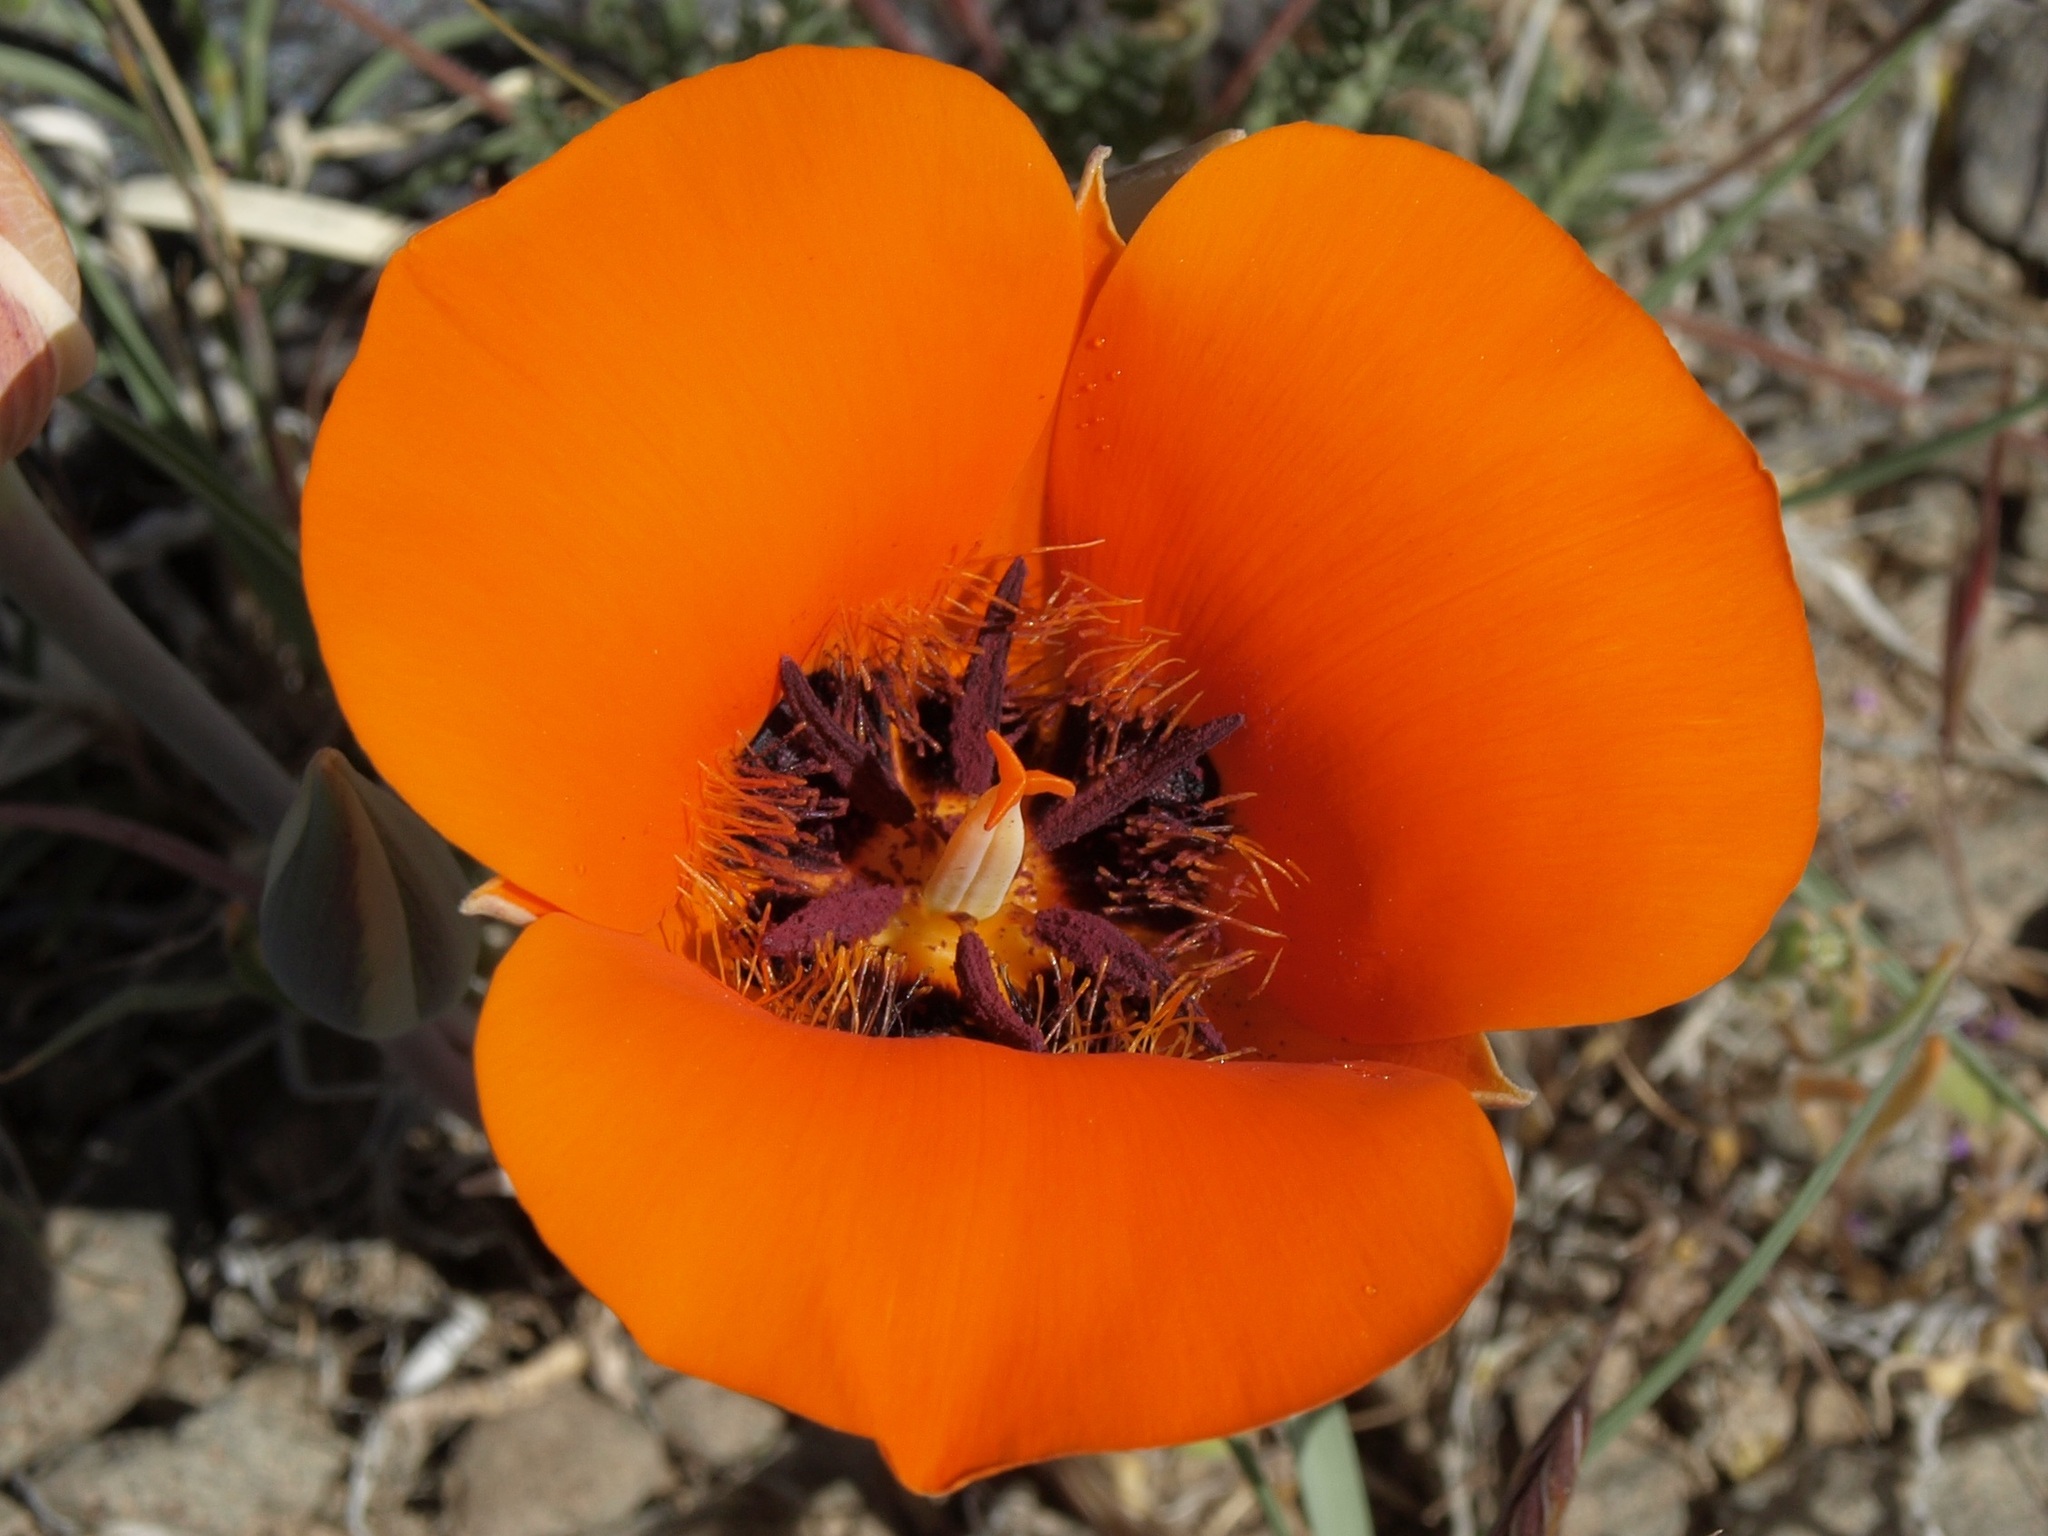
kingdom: Plantae
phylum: Tracheophyta
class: Liliopsida
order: Liliales
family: Liliaceae
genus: Calochortus
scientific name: Calochortus kennedyi
